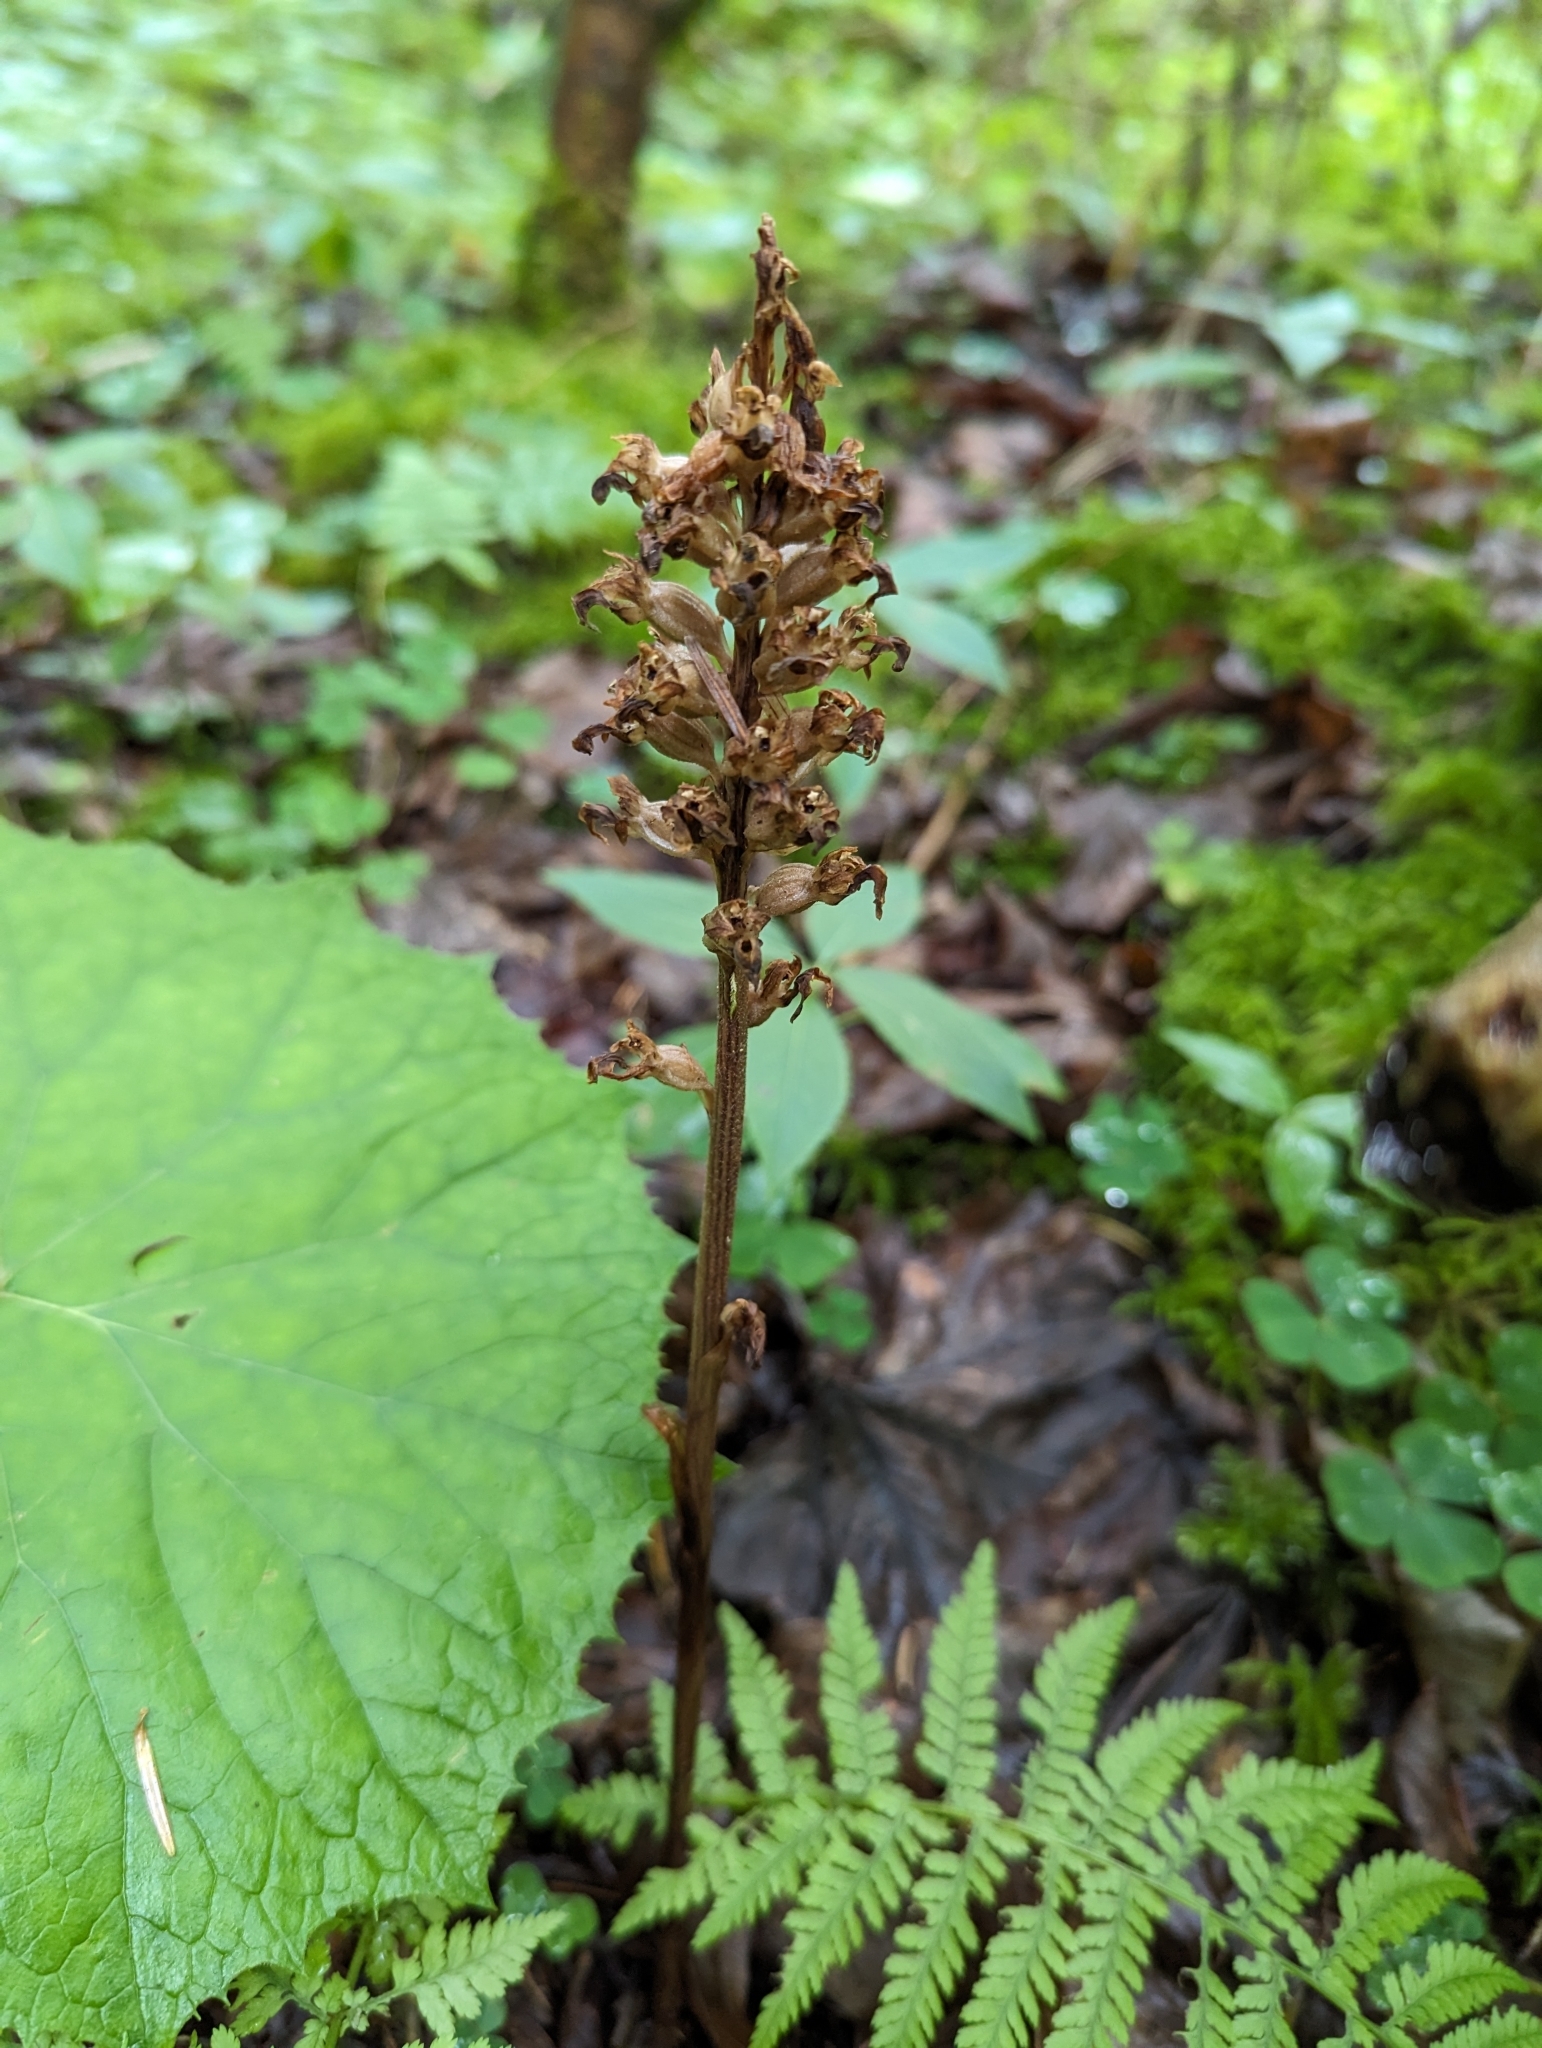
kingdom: Plantae
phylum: Tracheophyta
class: Liliopsida
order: Asparagales
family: Orchidaceae
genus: Neottia
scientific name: Neottia nidus-avis
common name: Bird's-nest orchid
